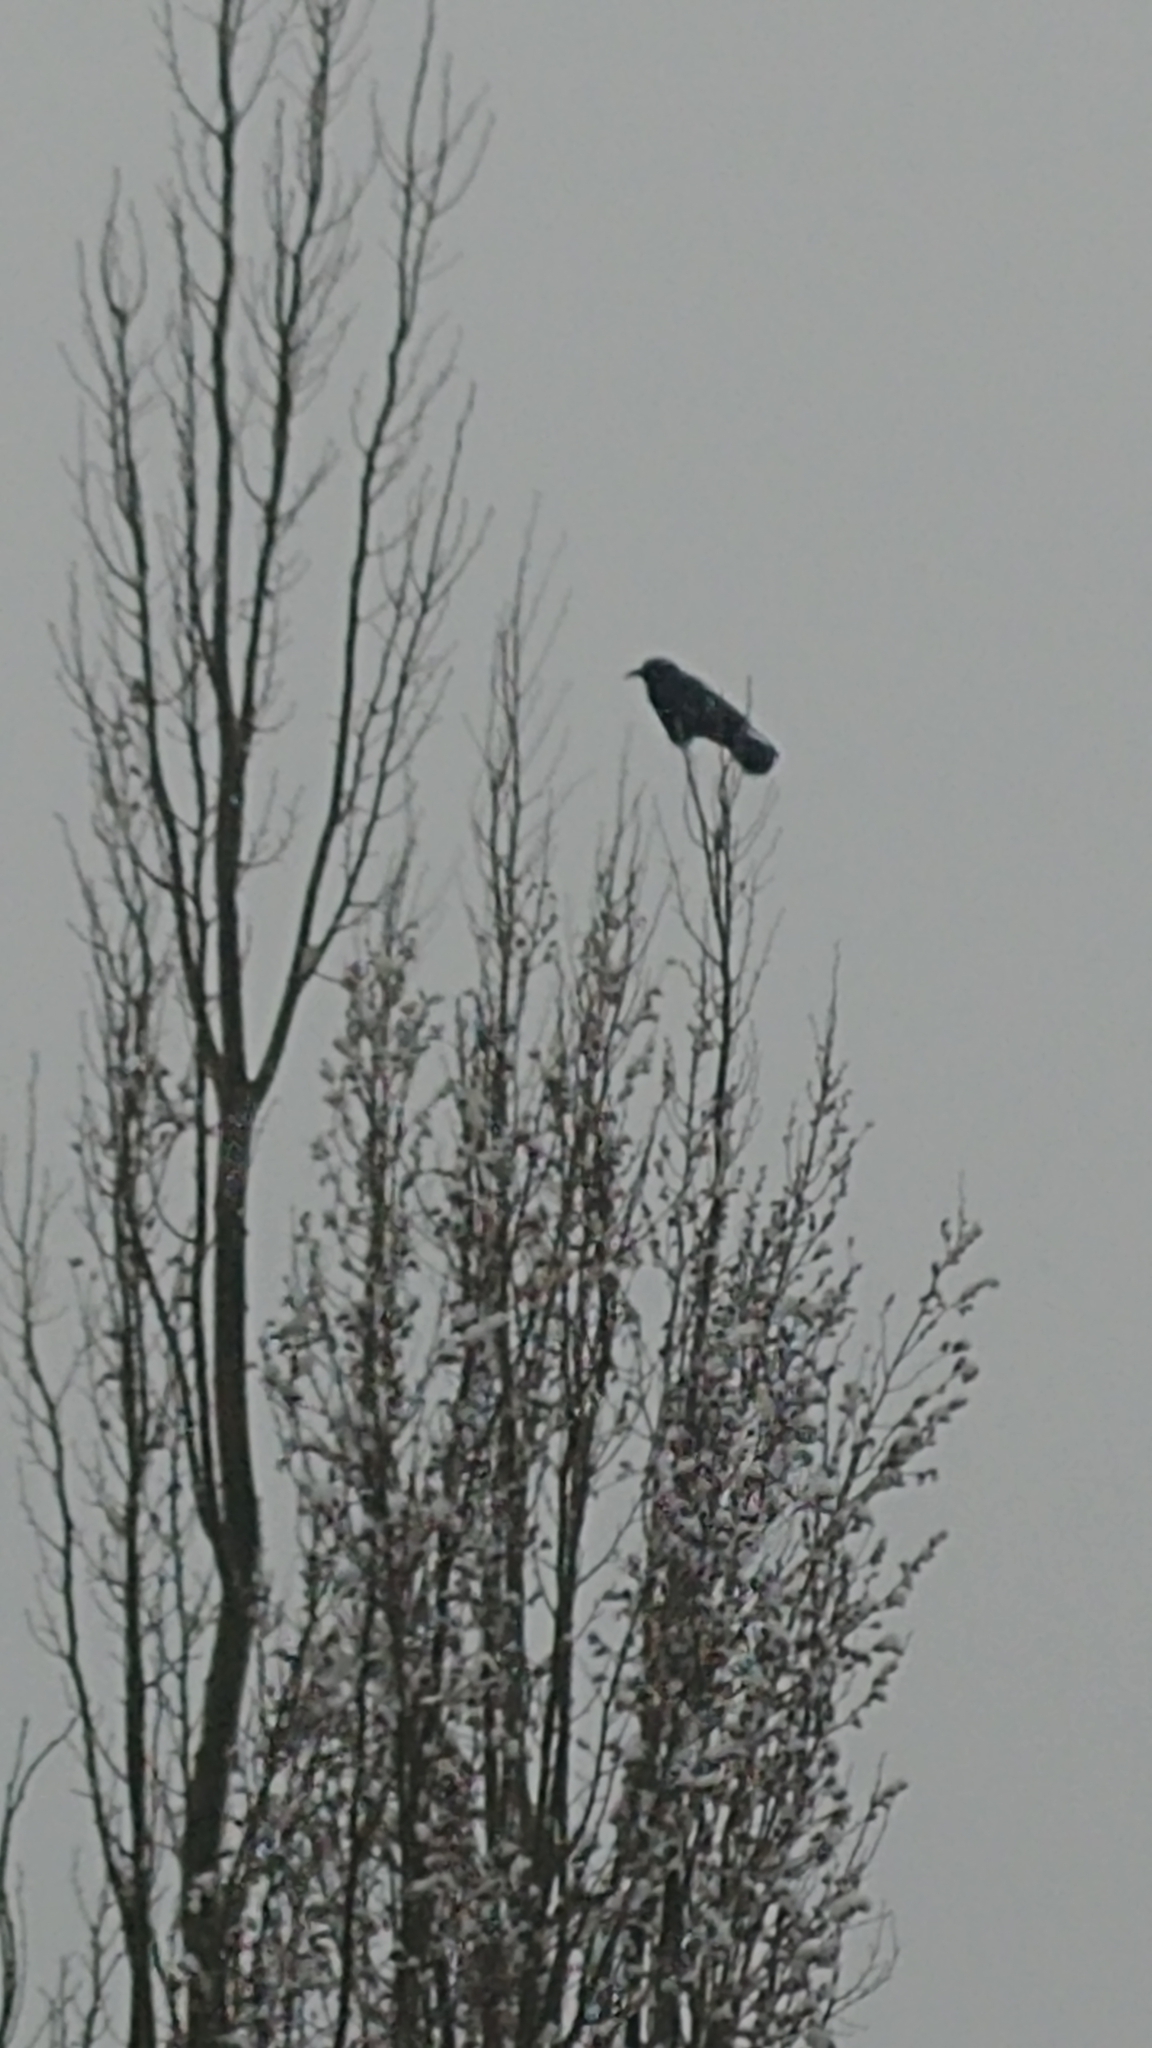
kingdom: Animalia
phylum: Chordata
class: Aves
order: Passeriformes
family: Corvidae
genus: Corvus
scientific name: Corvus brachyrhynchos
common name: American crow
